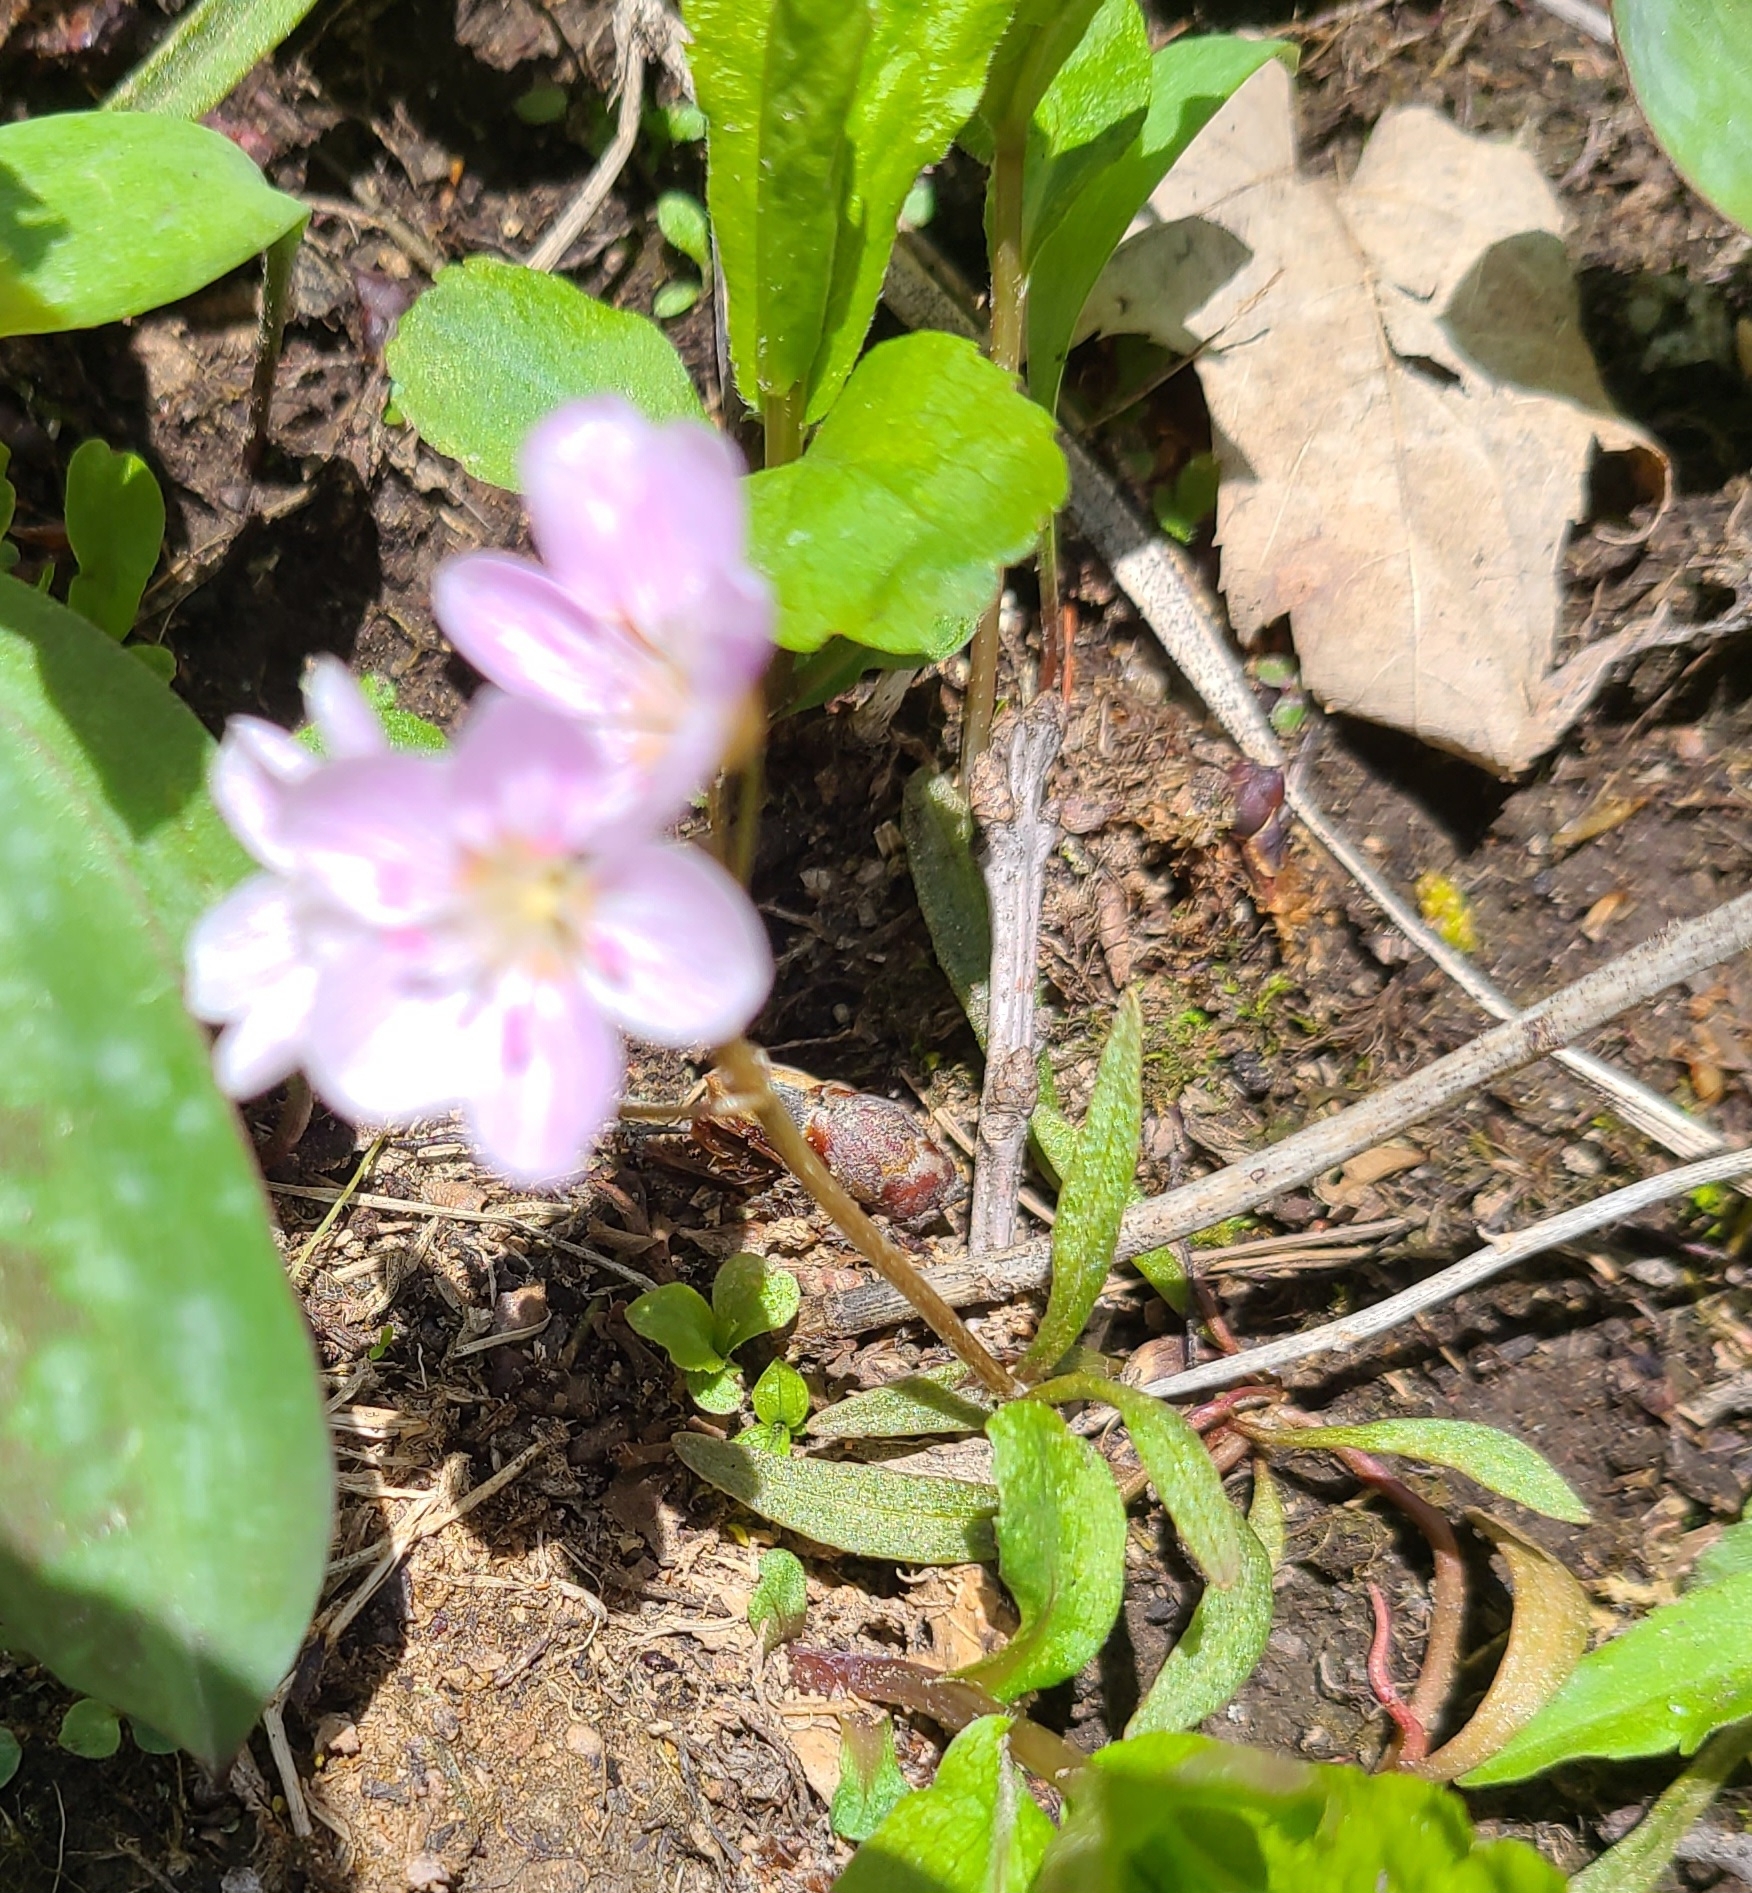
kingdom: Plantae
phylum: Tracheophyta
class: Magnoliopsida
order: Caryophyllales
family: Montiaceae
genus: Claytonia
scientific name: Claytonia virginica
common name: Virginia springbeauty
